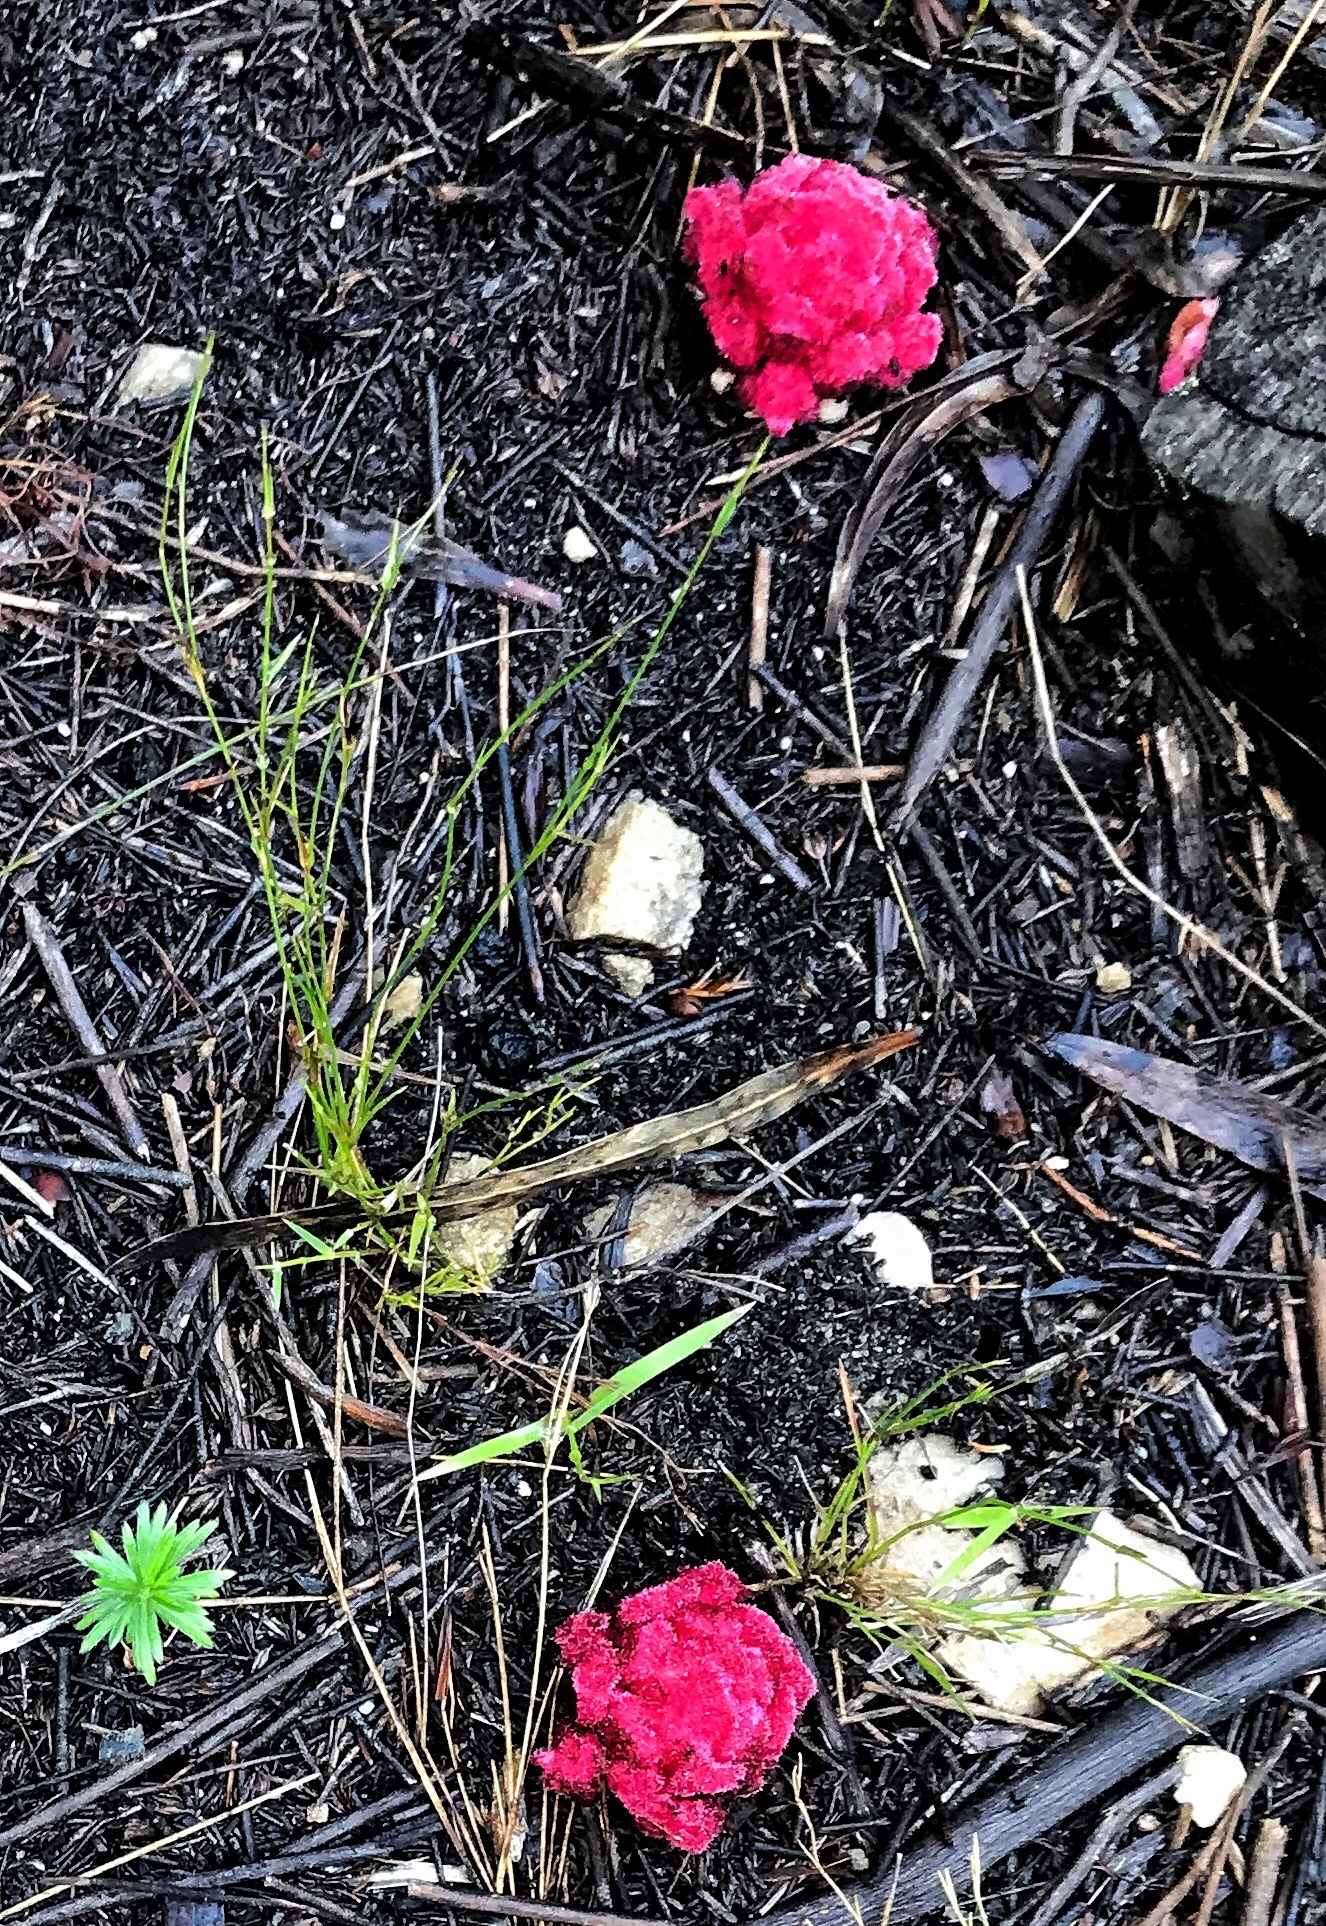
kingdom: Plantae
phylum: Tracheophyta
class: Magnoliopsida
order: Lamiales
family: Orobanchaceae
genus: Hyobanche
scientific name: Hyobanche sanguinea
